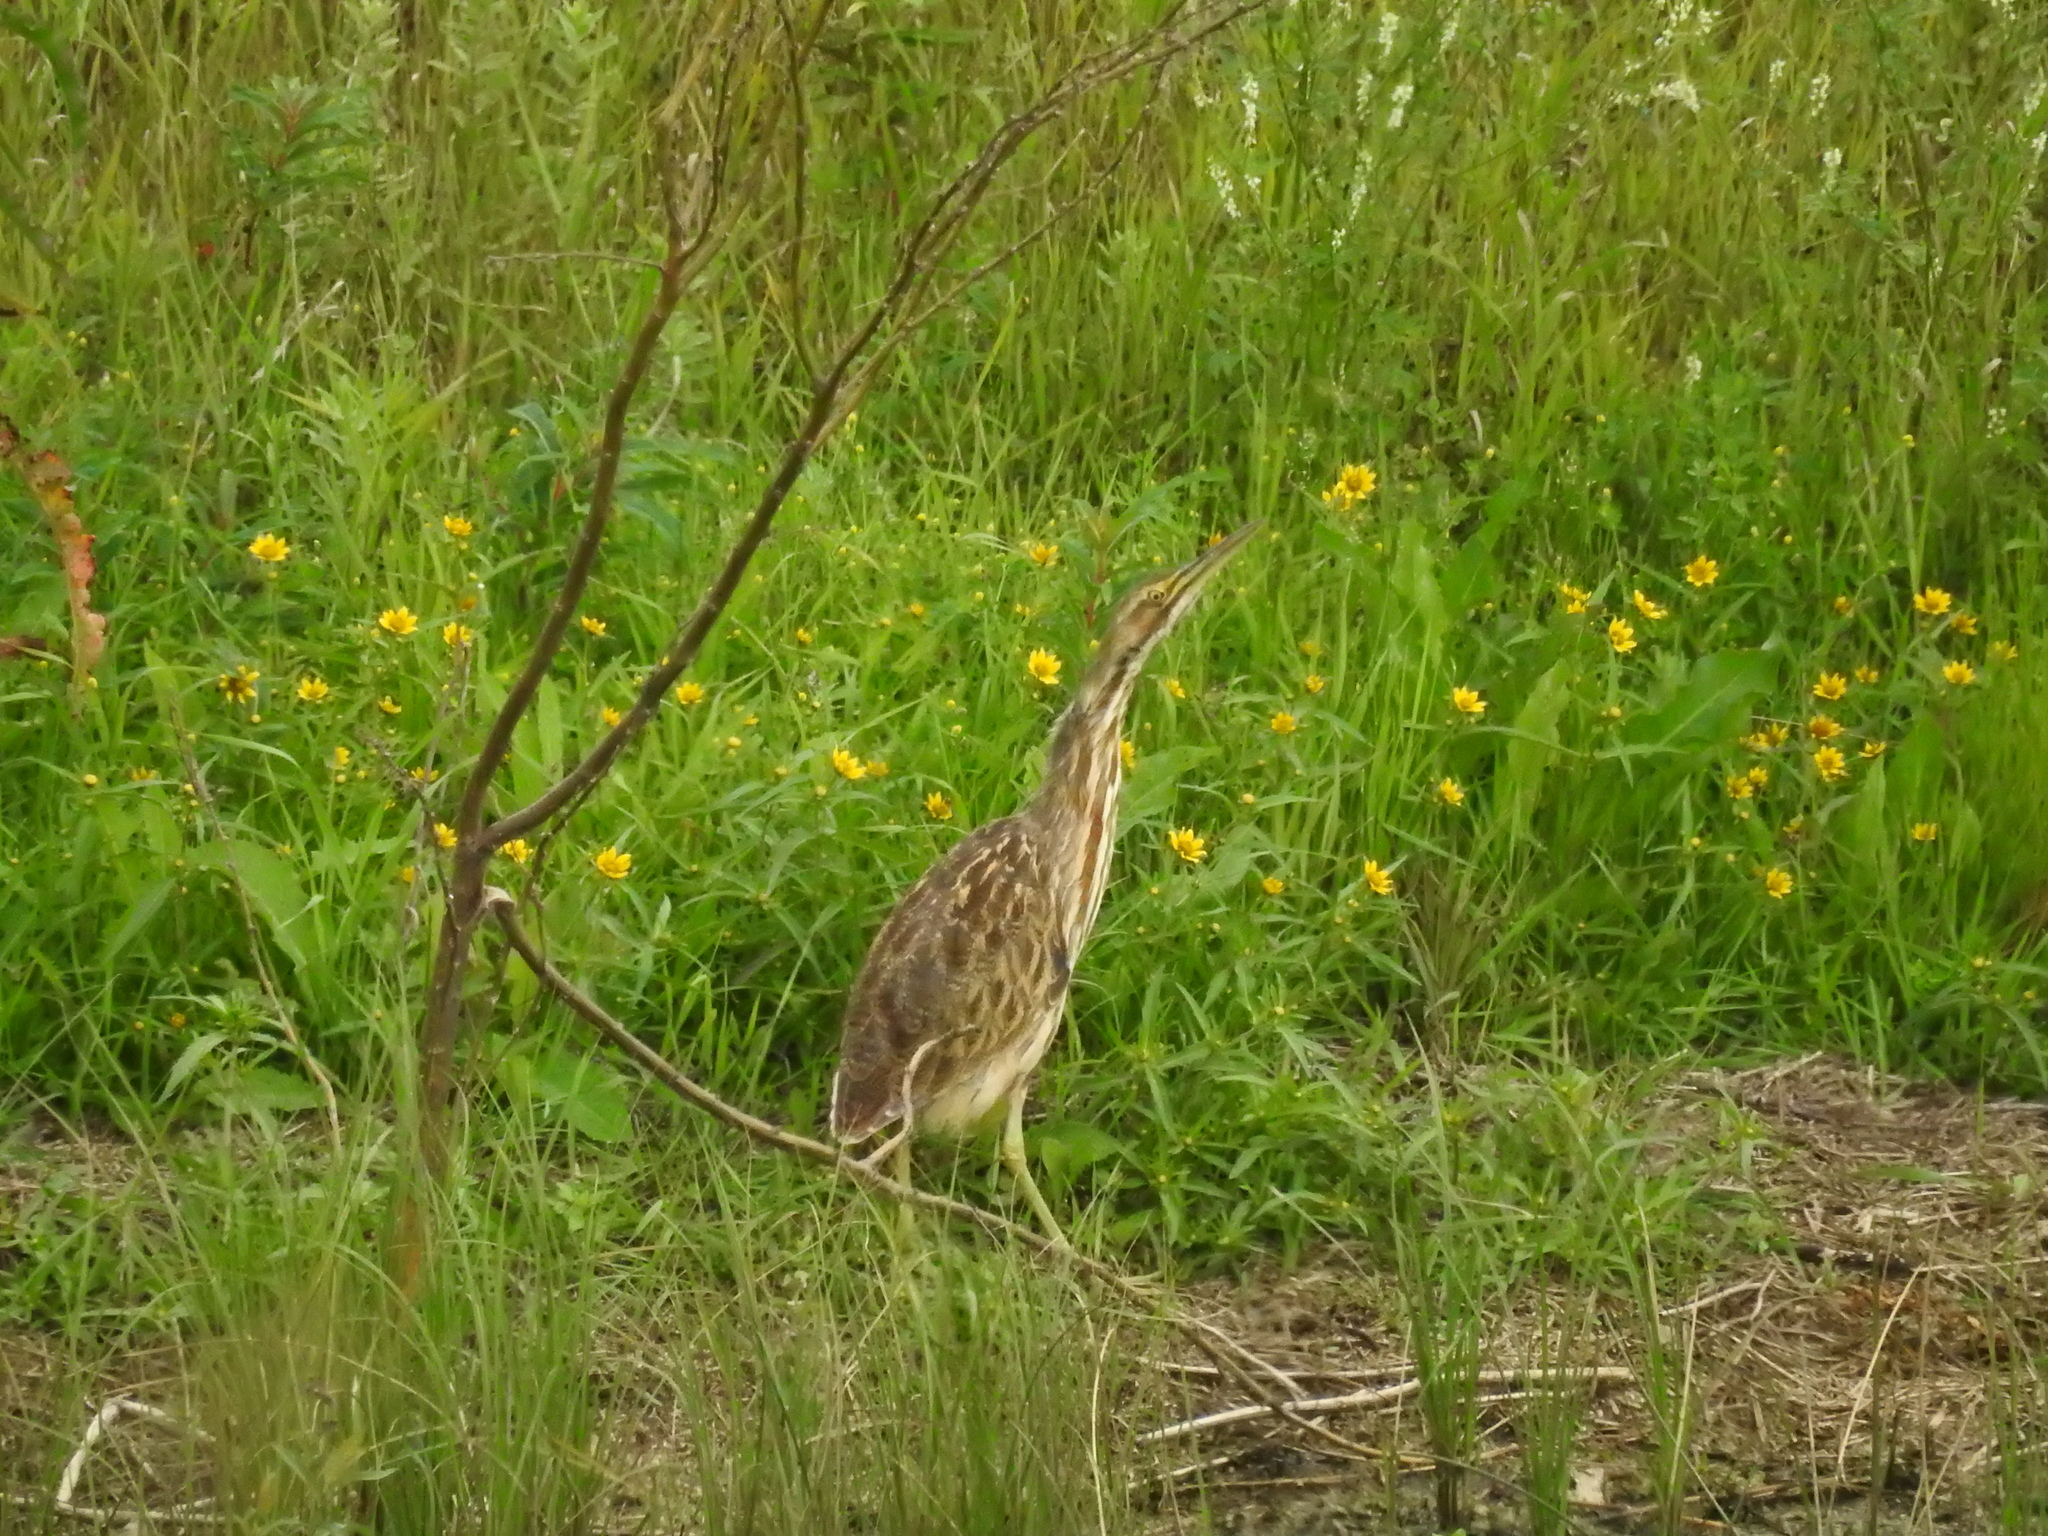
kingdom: Animalia
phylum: Chordata
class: Aves
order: Pelecaniformes
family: Ardeidae
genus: Botaurus
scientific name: Botaurus lentiginosus
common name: American bittern
